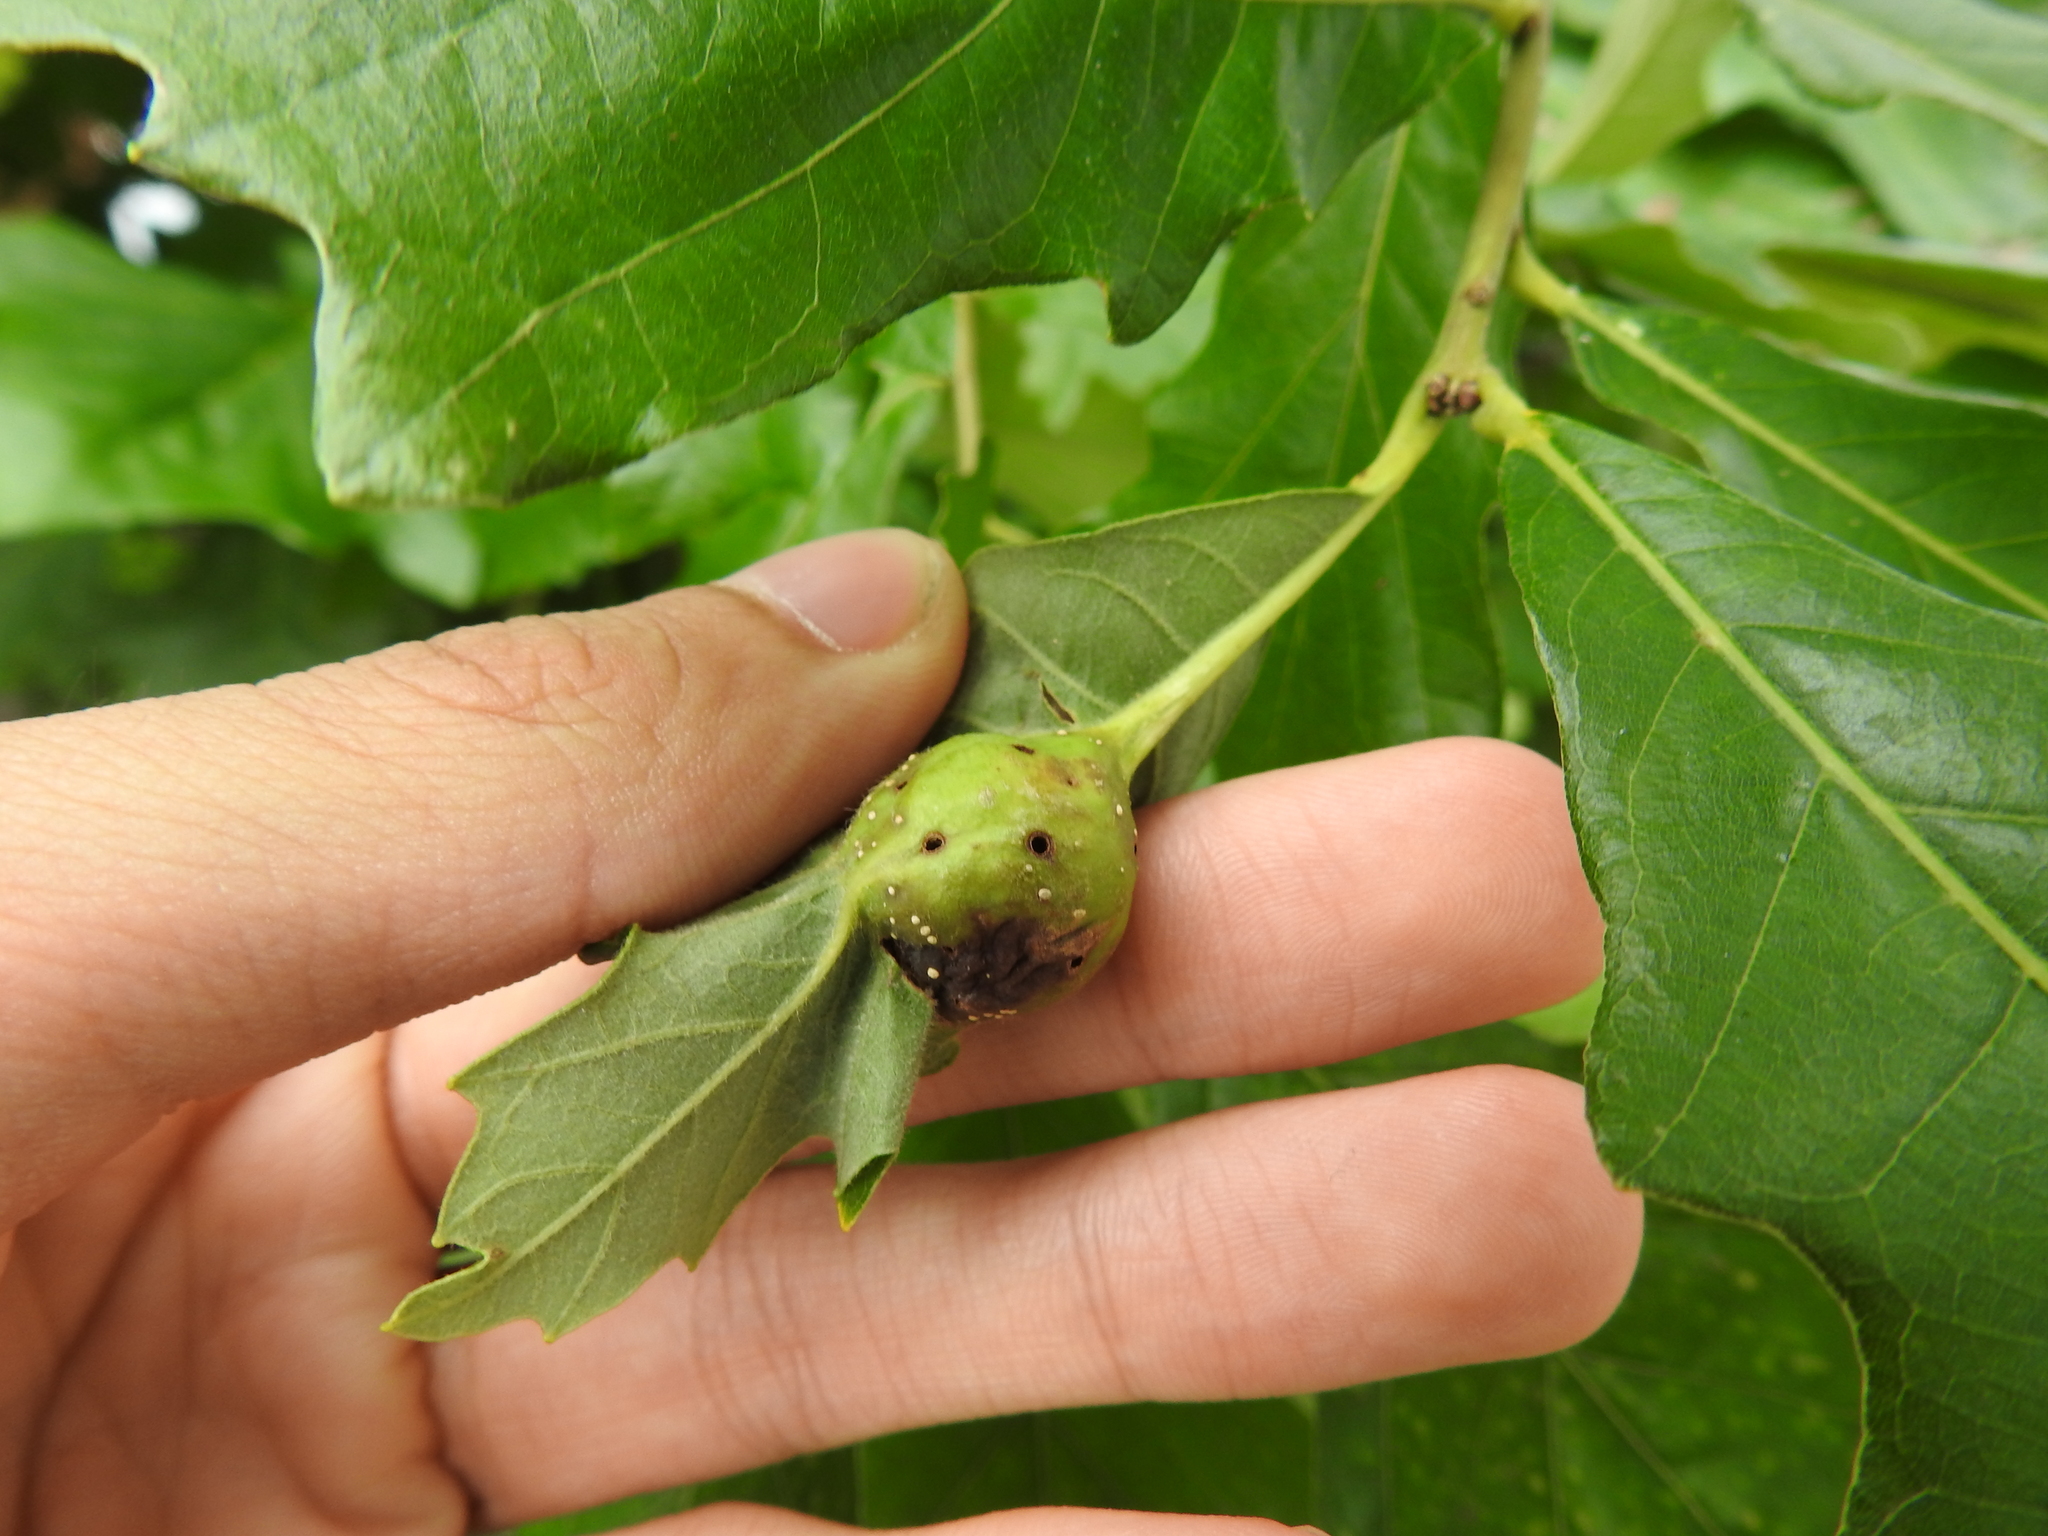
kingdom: Animalia
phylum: Arthropoda
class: Insecta
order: Hymenoptera
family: Cynipidae
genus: Andricus
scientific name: Andricus
